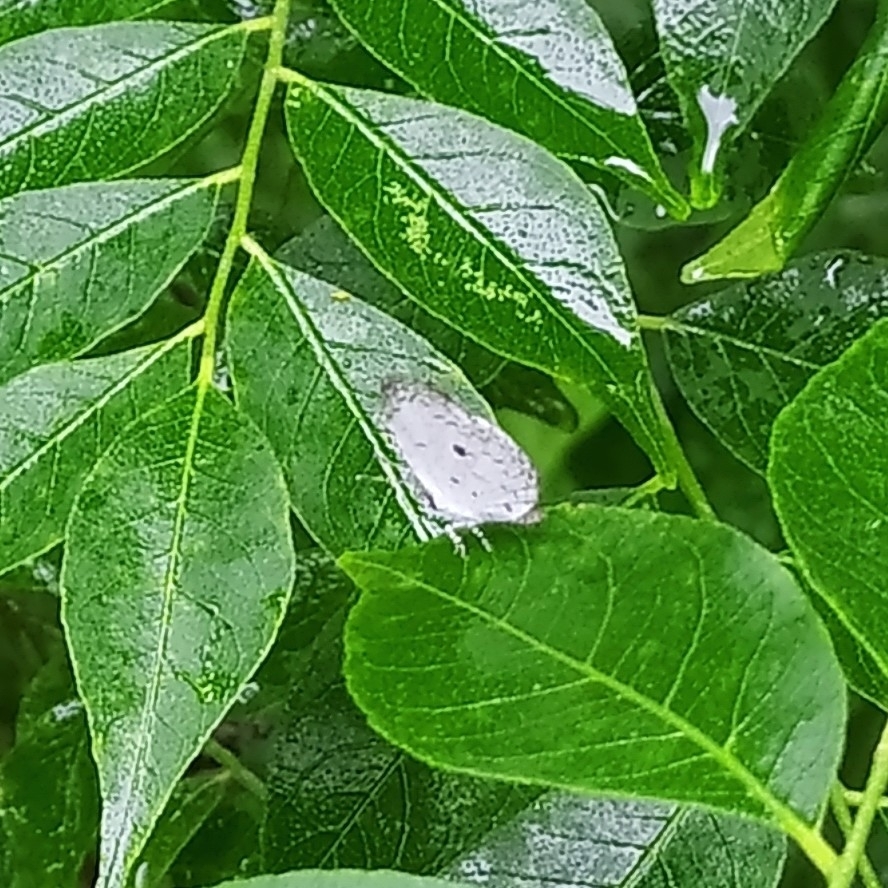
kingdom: Animalia
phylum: Arthropoda
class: Insecta
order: Lepidoptera
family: Lycaenidae
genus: Neopithecops
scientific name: Neopithecops zalmora
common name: Quaker
